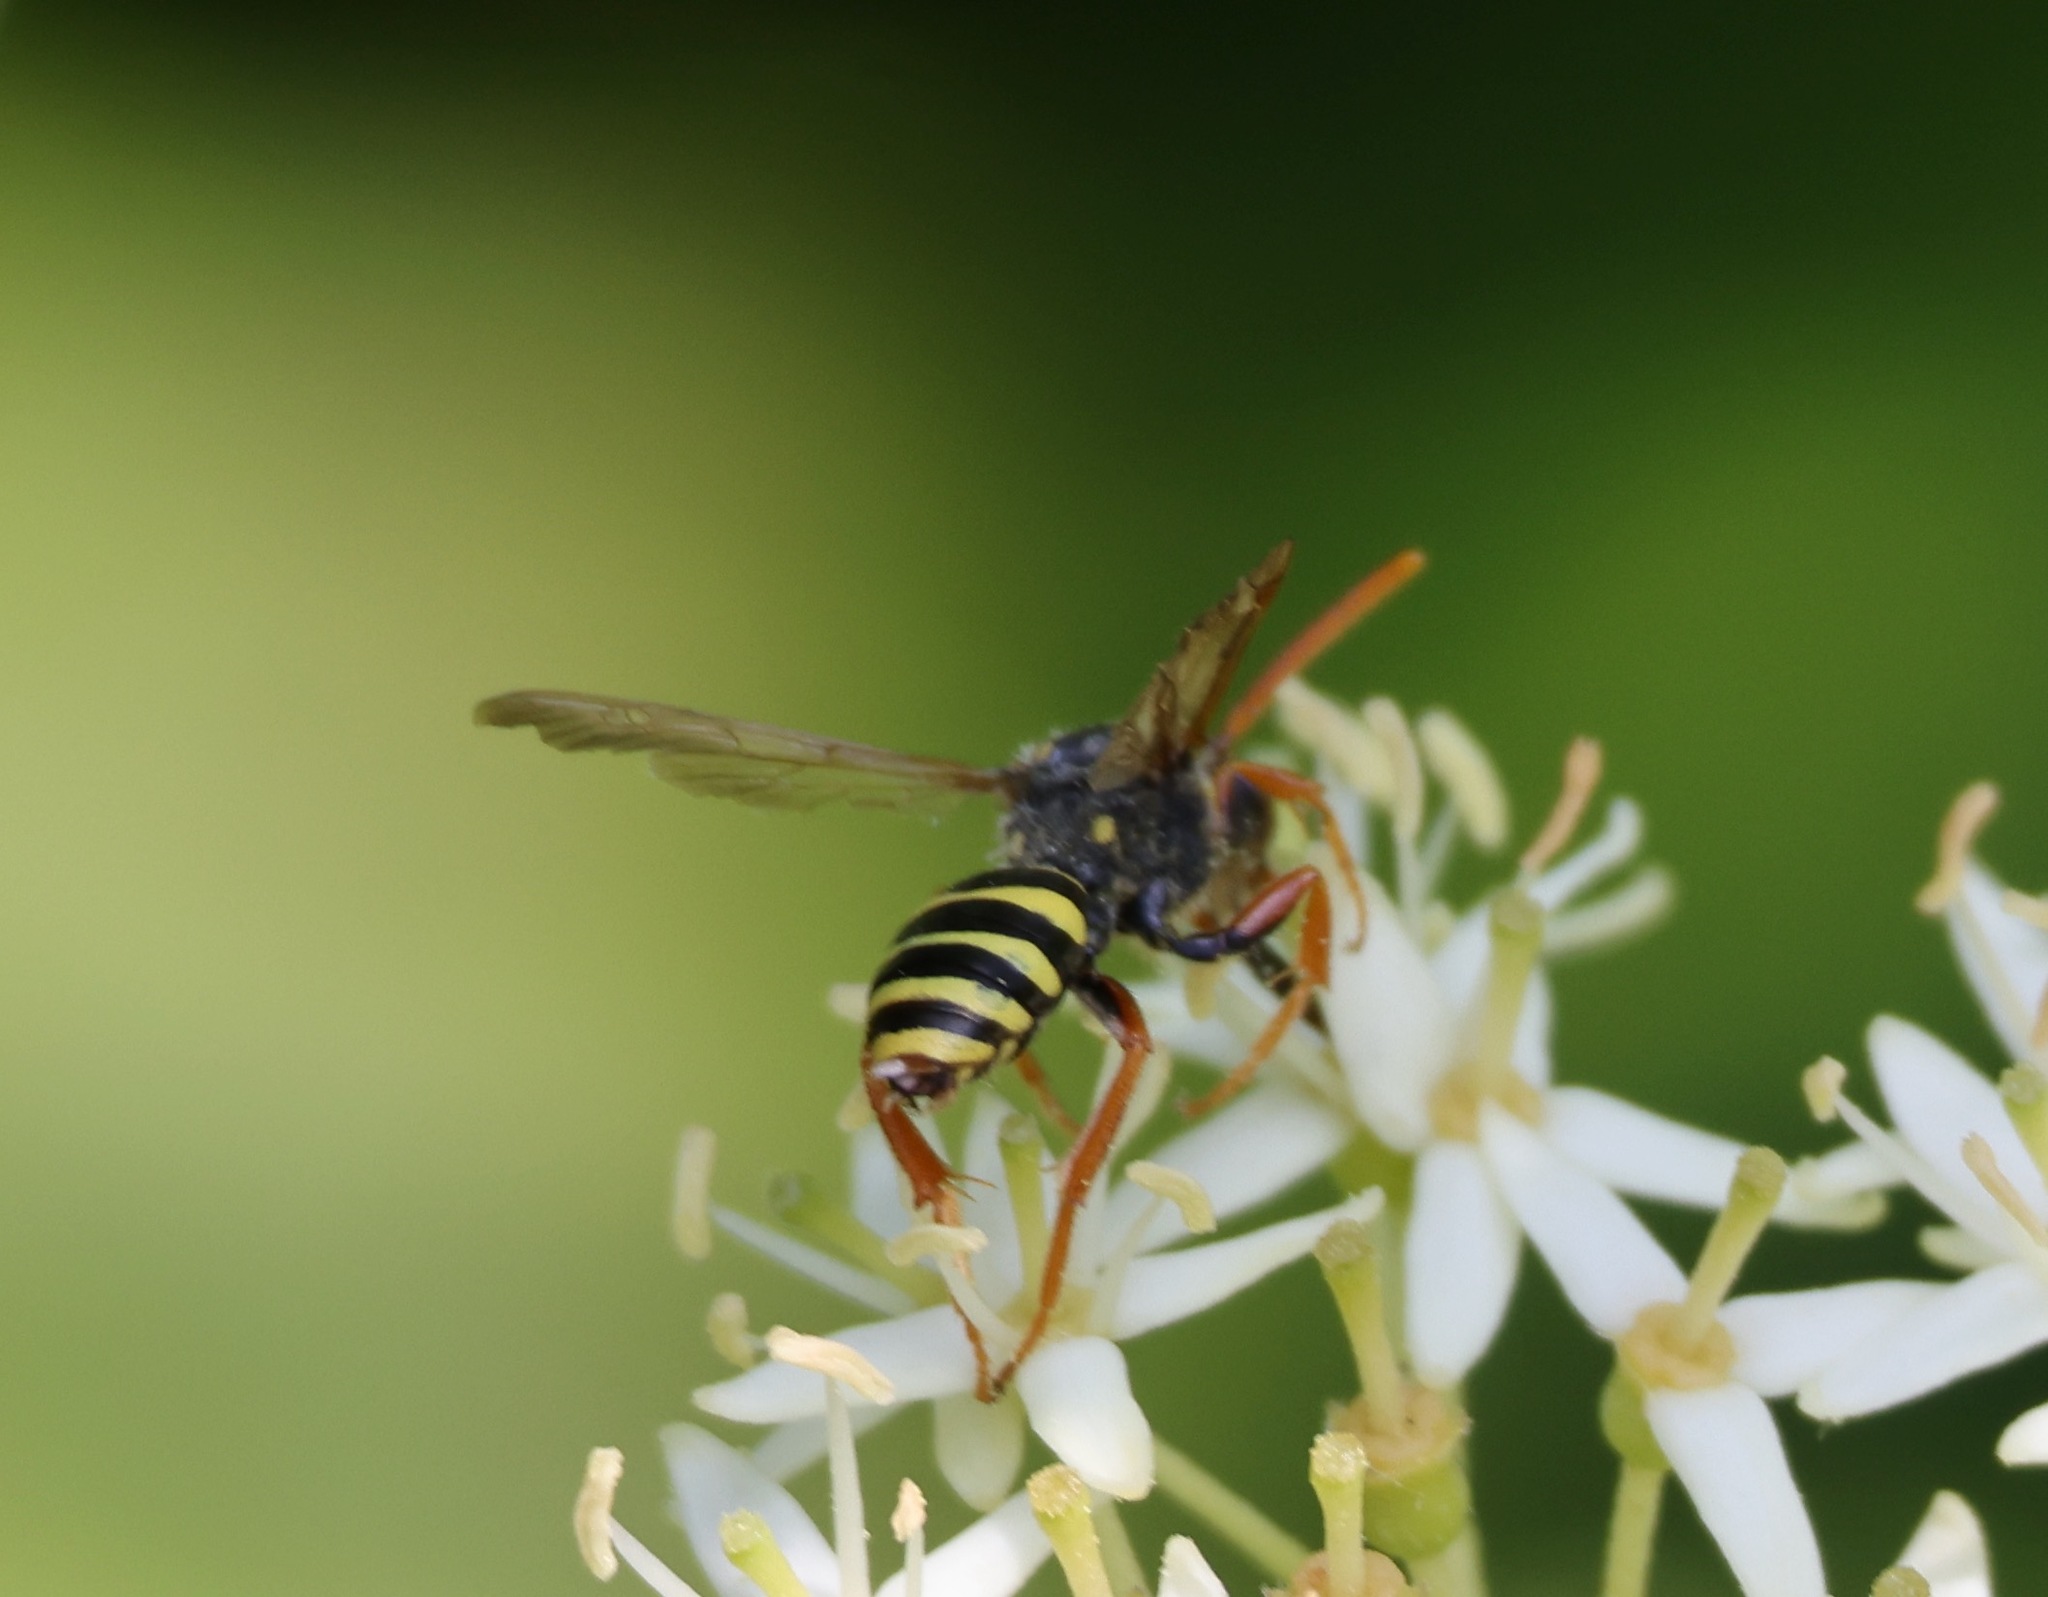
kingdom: Animalia
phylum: Arthropoda
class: Insecta
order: Hymenoptera
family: Apidae
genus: Nomada
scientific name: Nomada goodeniana
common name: Gooden's nomad bee
